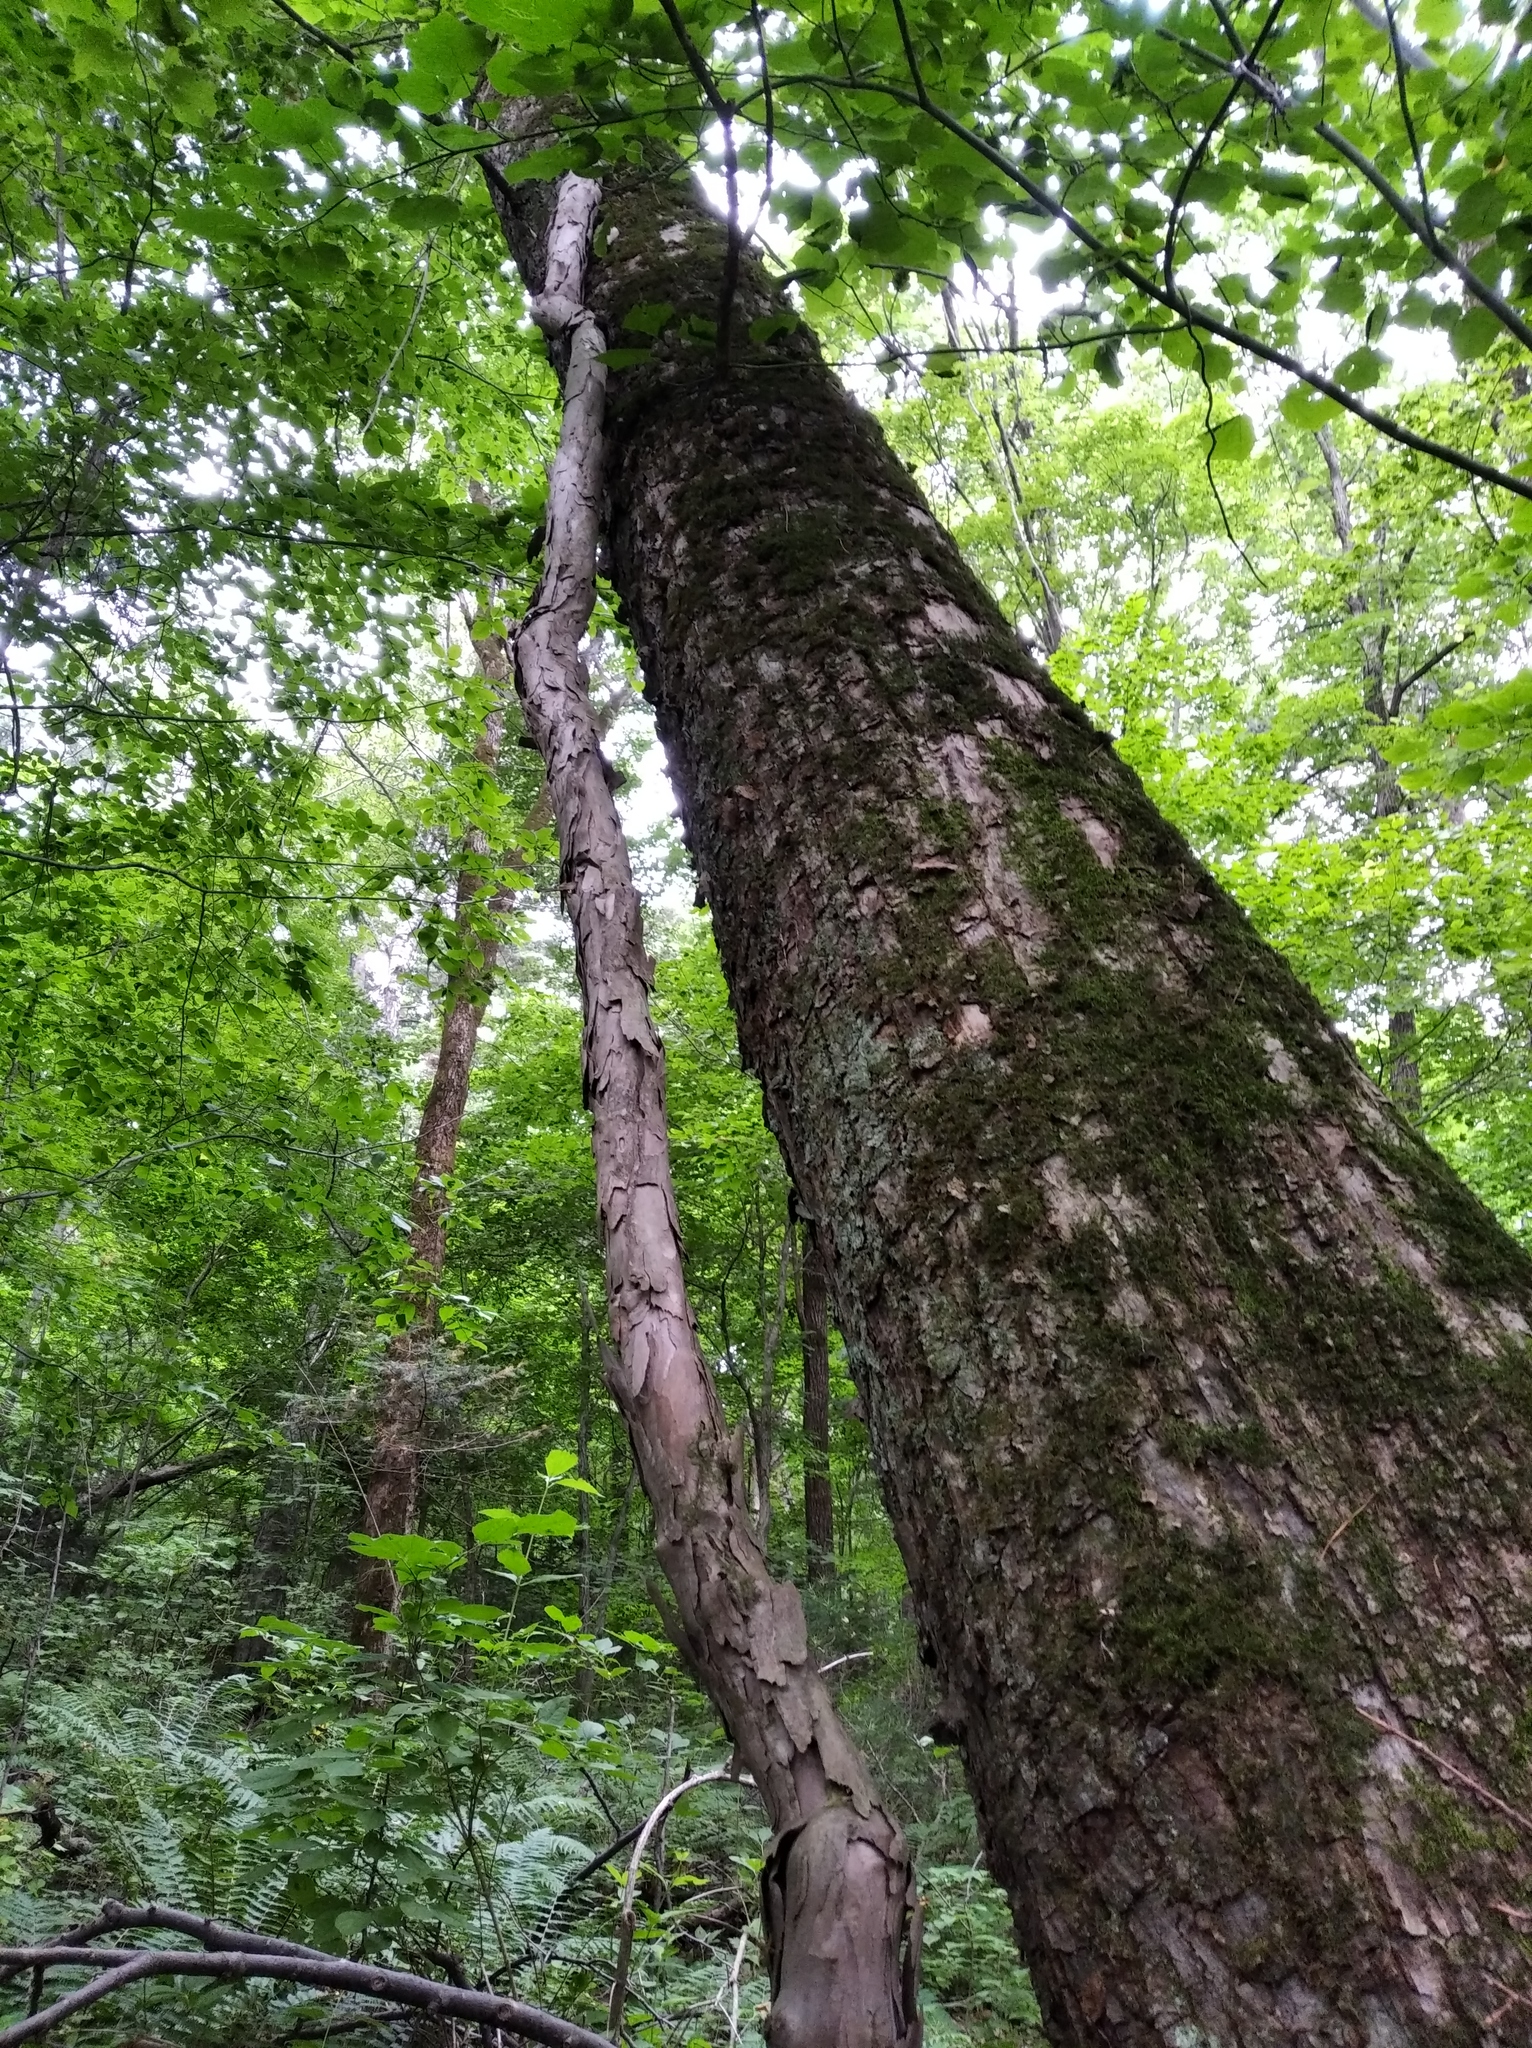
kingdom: Plantae
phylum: Tracheophyta
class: Magnoliopsida
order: Ericales
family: Actinidiaceae
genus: Actinidia
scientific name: Actinidia arguta
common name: Tara vine
